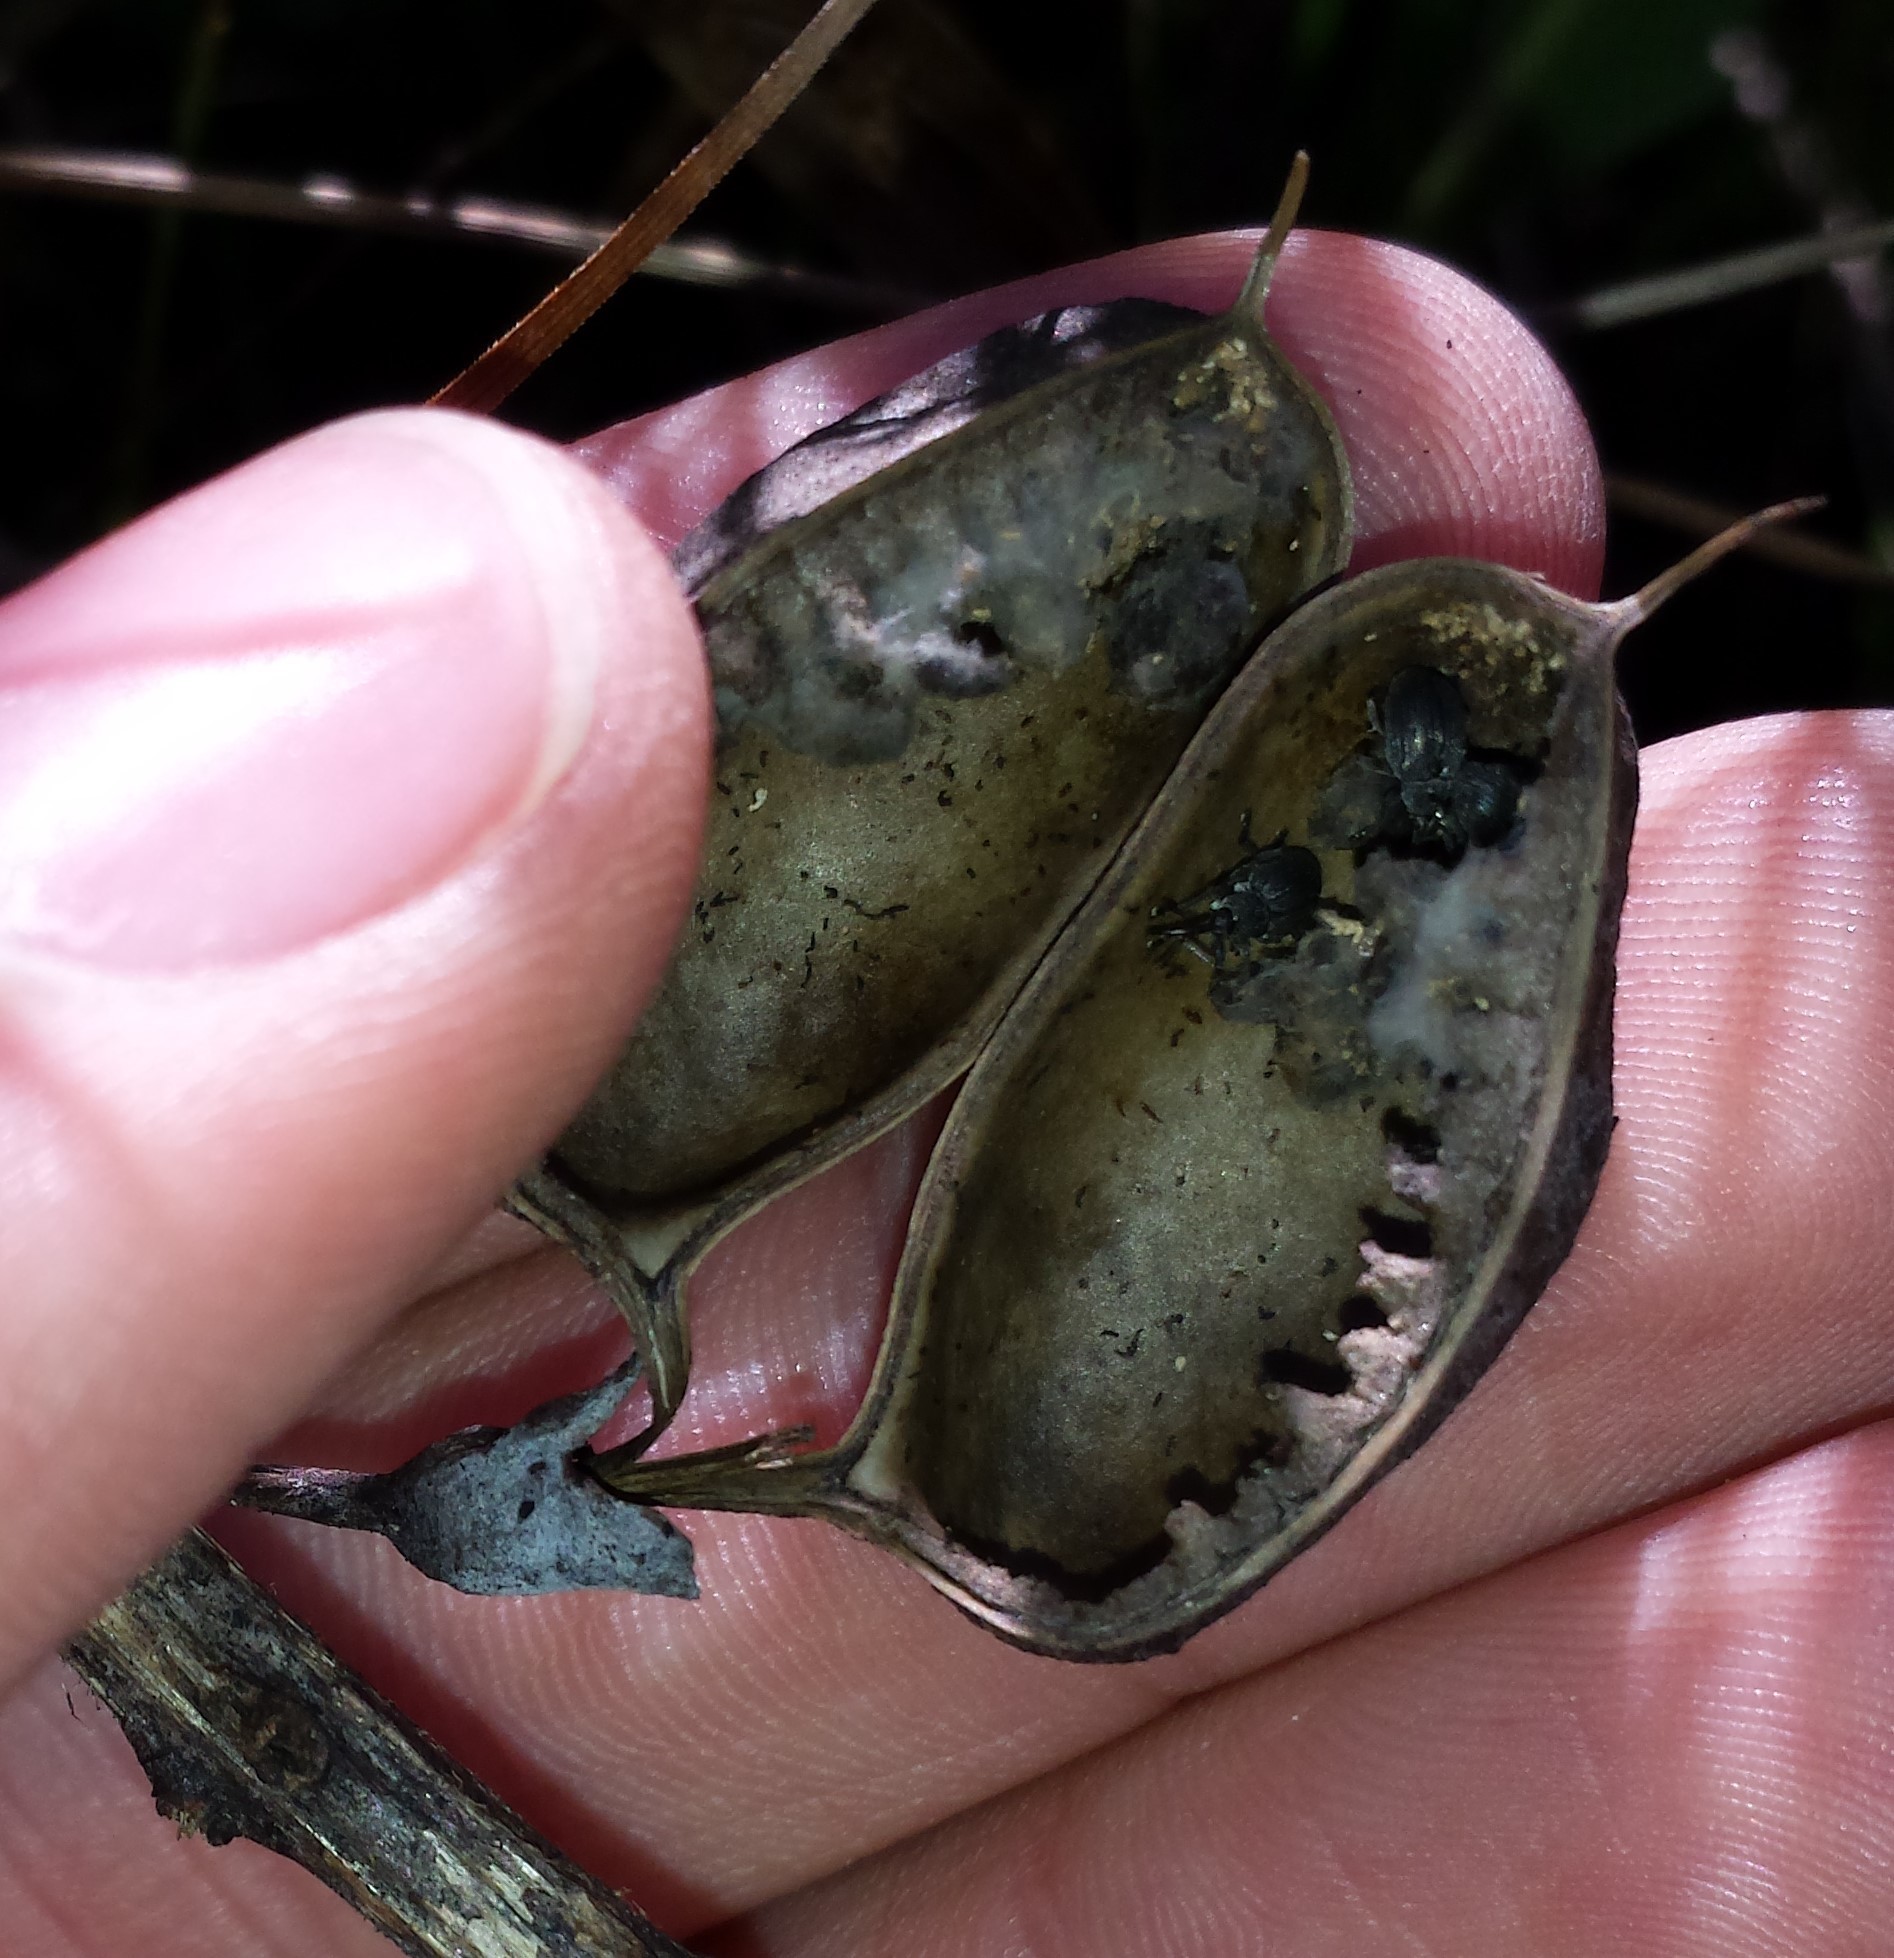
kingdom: Animalia
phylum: Arthropoda
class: Insecta
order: Coleoptera
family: Brentidae
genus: Trichapion
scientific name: Trichapion
